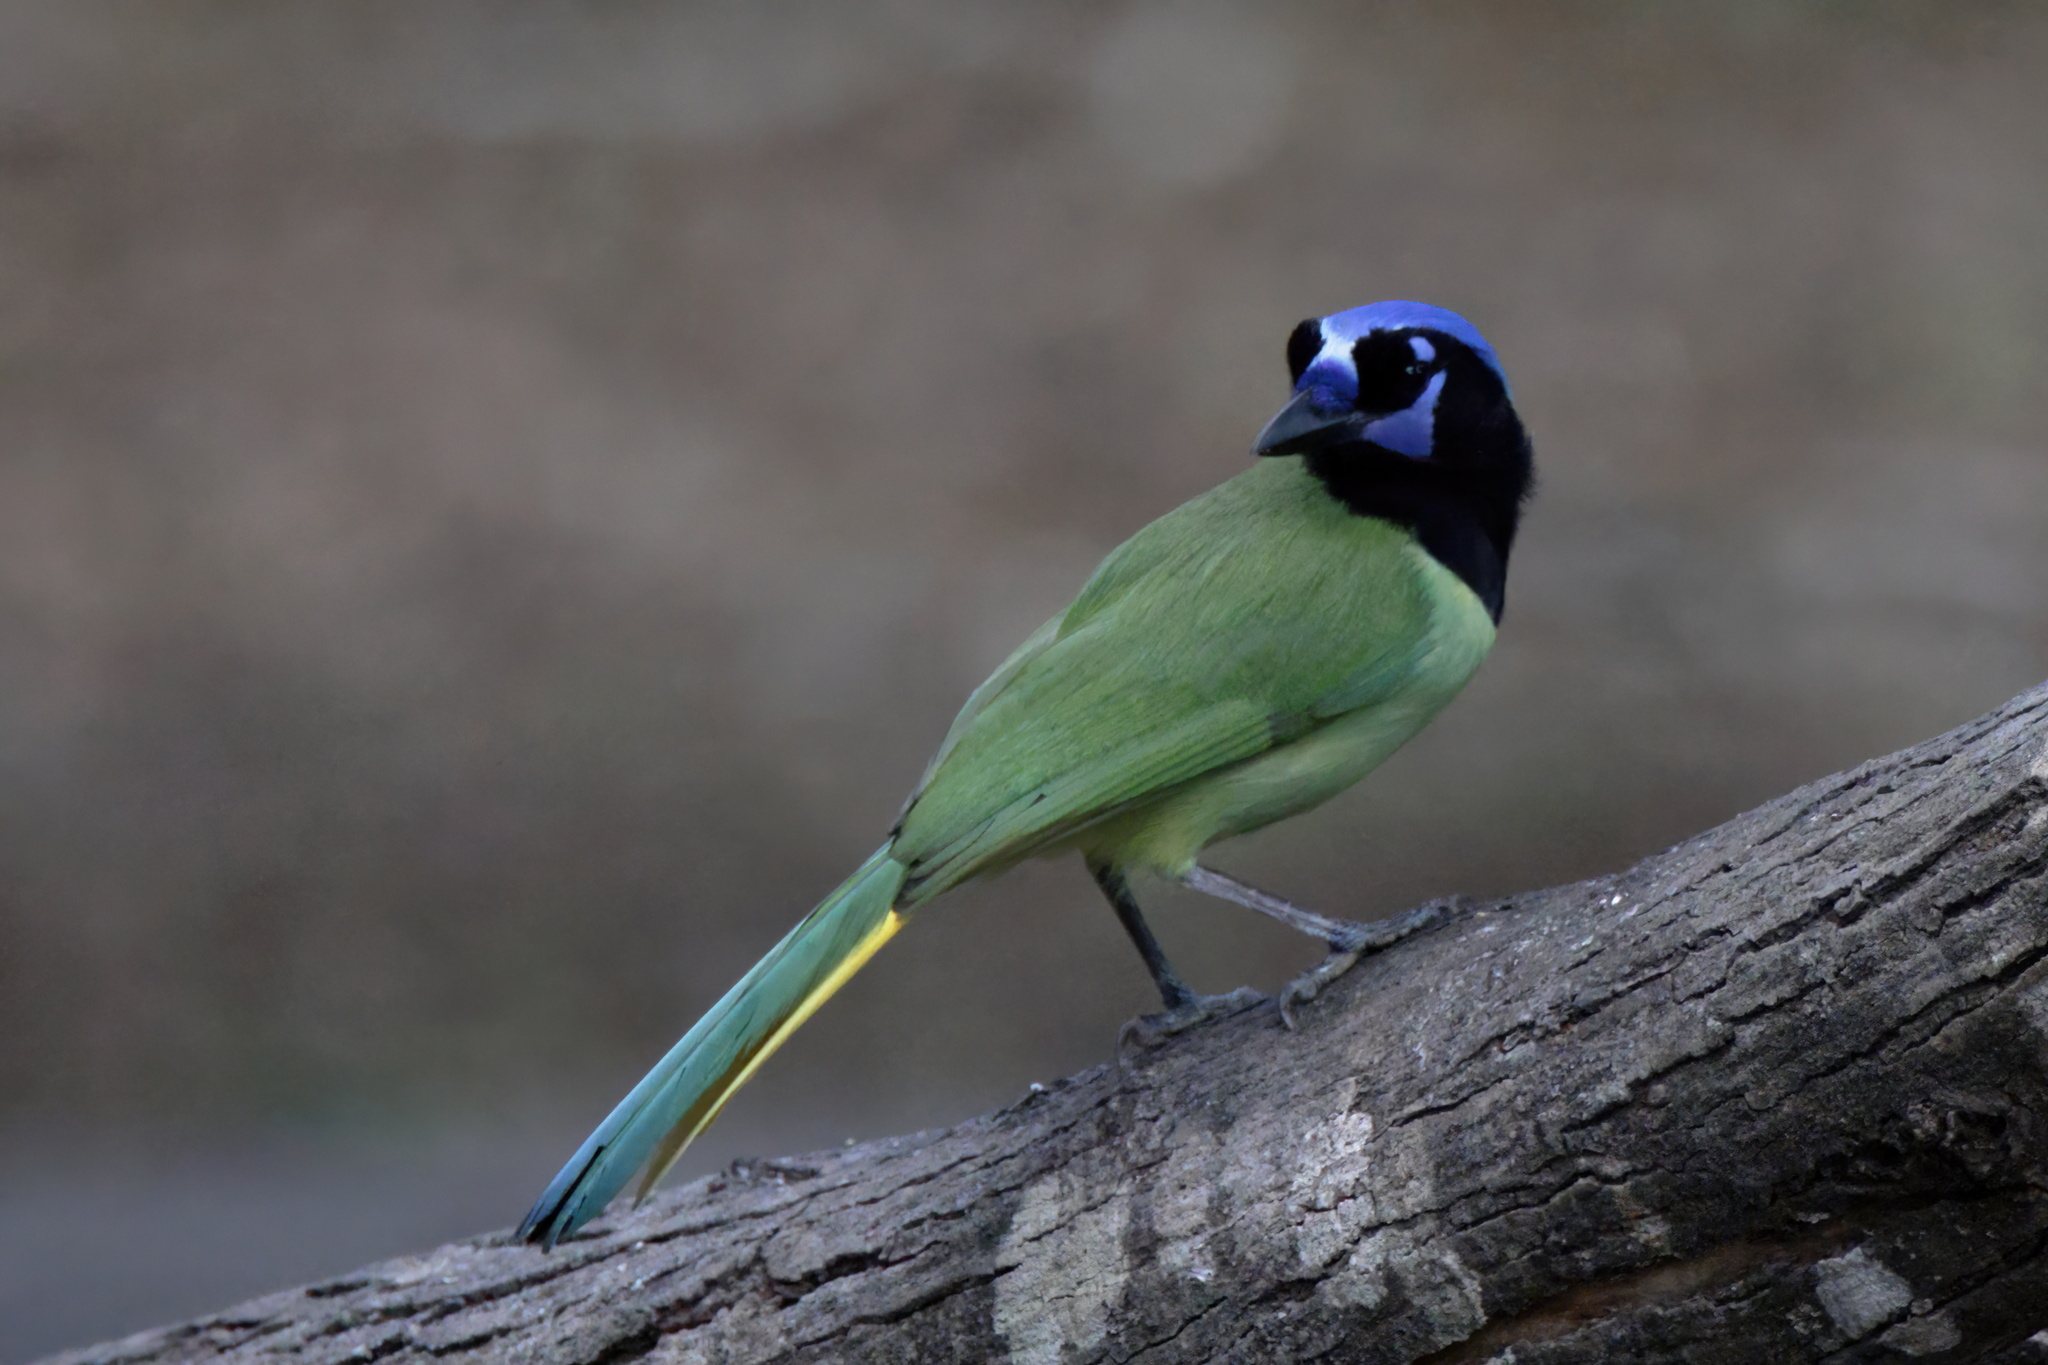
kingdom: Animalia
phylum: Chordata
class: Aves
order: Passeriformes
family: Corvidae
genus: Cyanocorax
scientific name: Cyanocorax yncas
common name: Green jay
